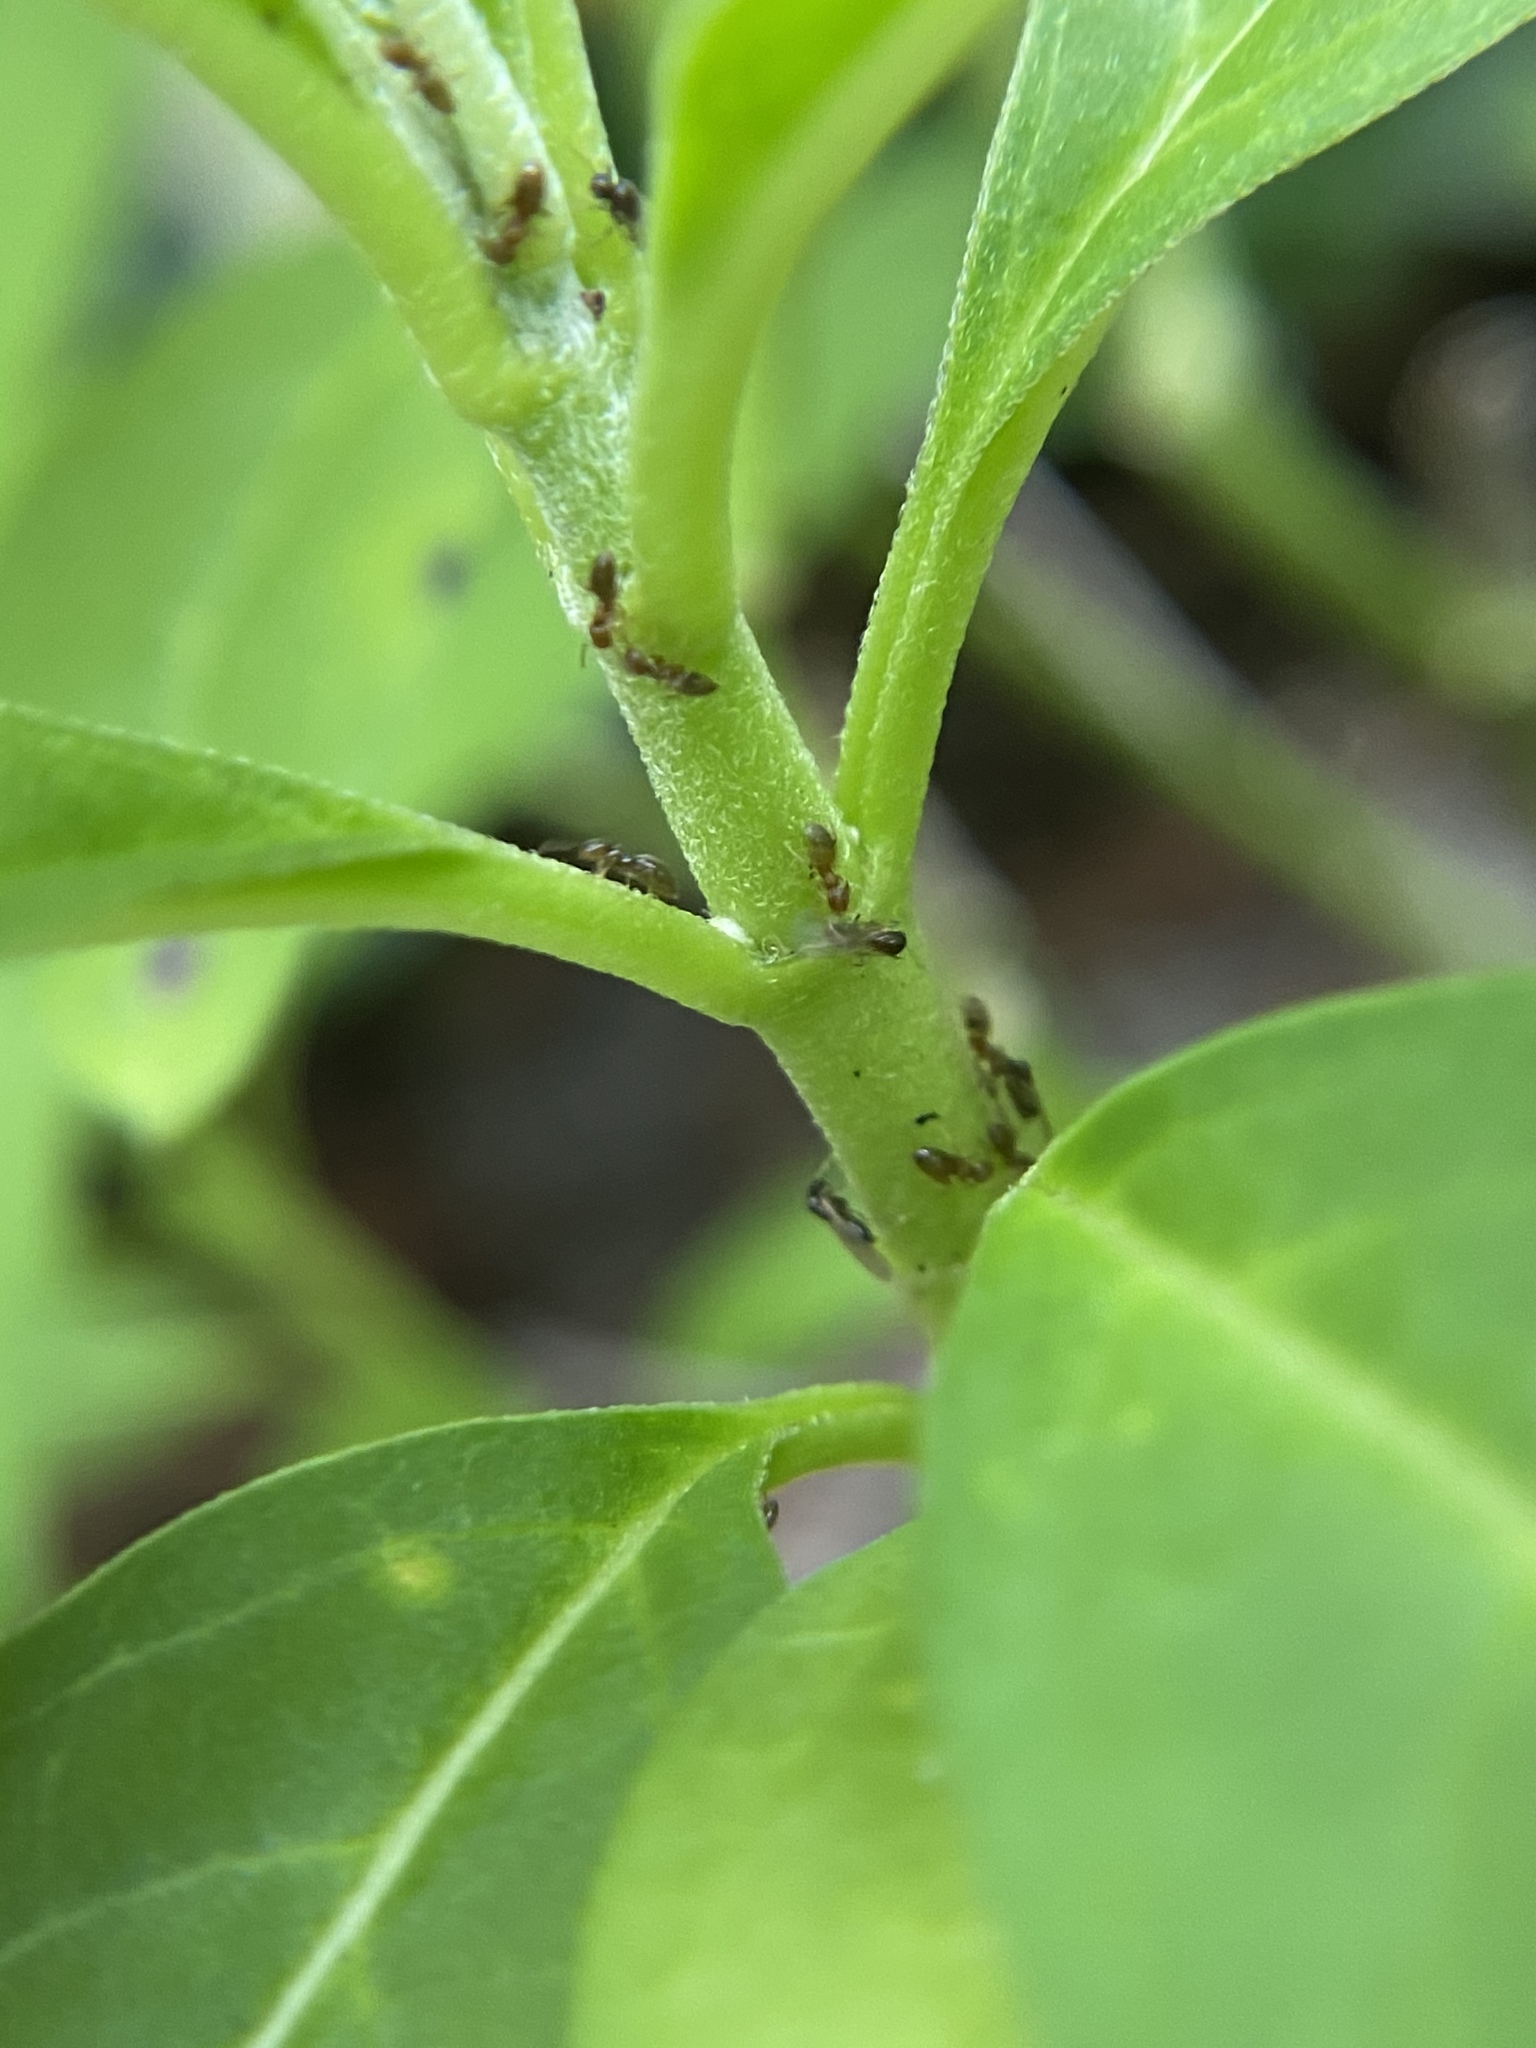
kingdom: Animalia
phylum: Arthropoda
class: Insecta
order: Hymenoptera
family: Formicidae
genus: Brachymyrmex
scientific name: Brachymyrmex obscurior
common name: Obscure rover ant
